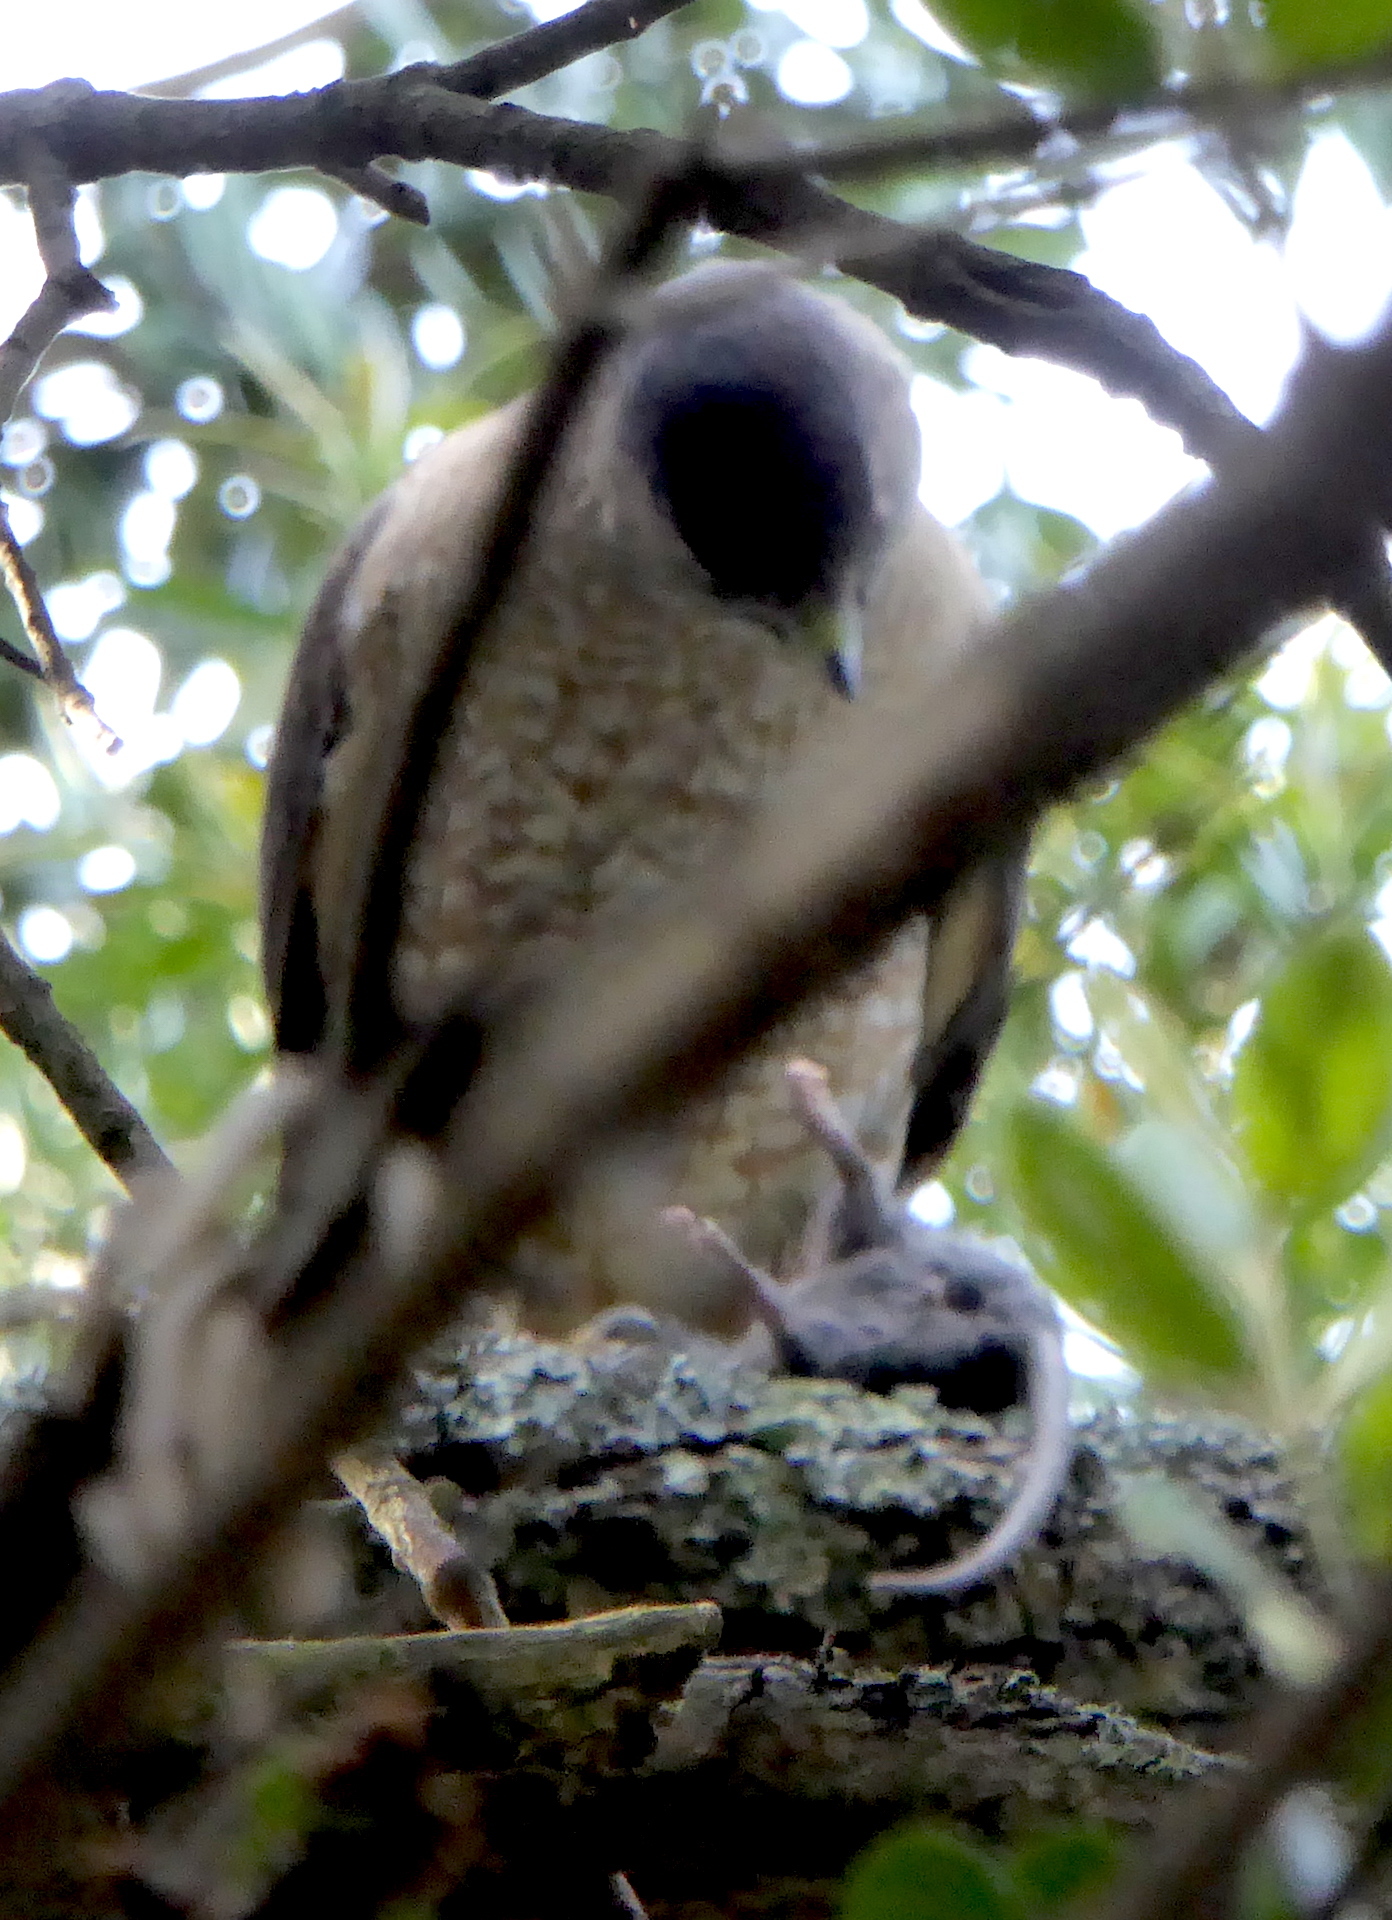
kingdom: Animalia
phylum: Chordata
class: Aves
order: Accipitriformes
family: Accipitridae
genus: Accipiter
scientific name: Accipiter cooperii
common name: Cooper's hawk
